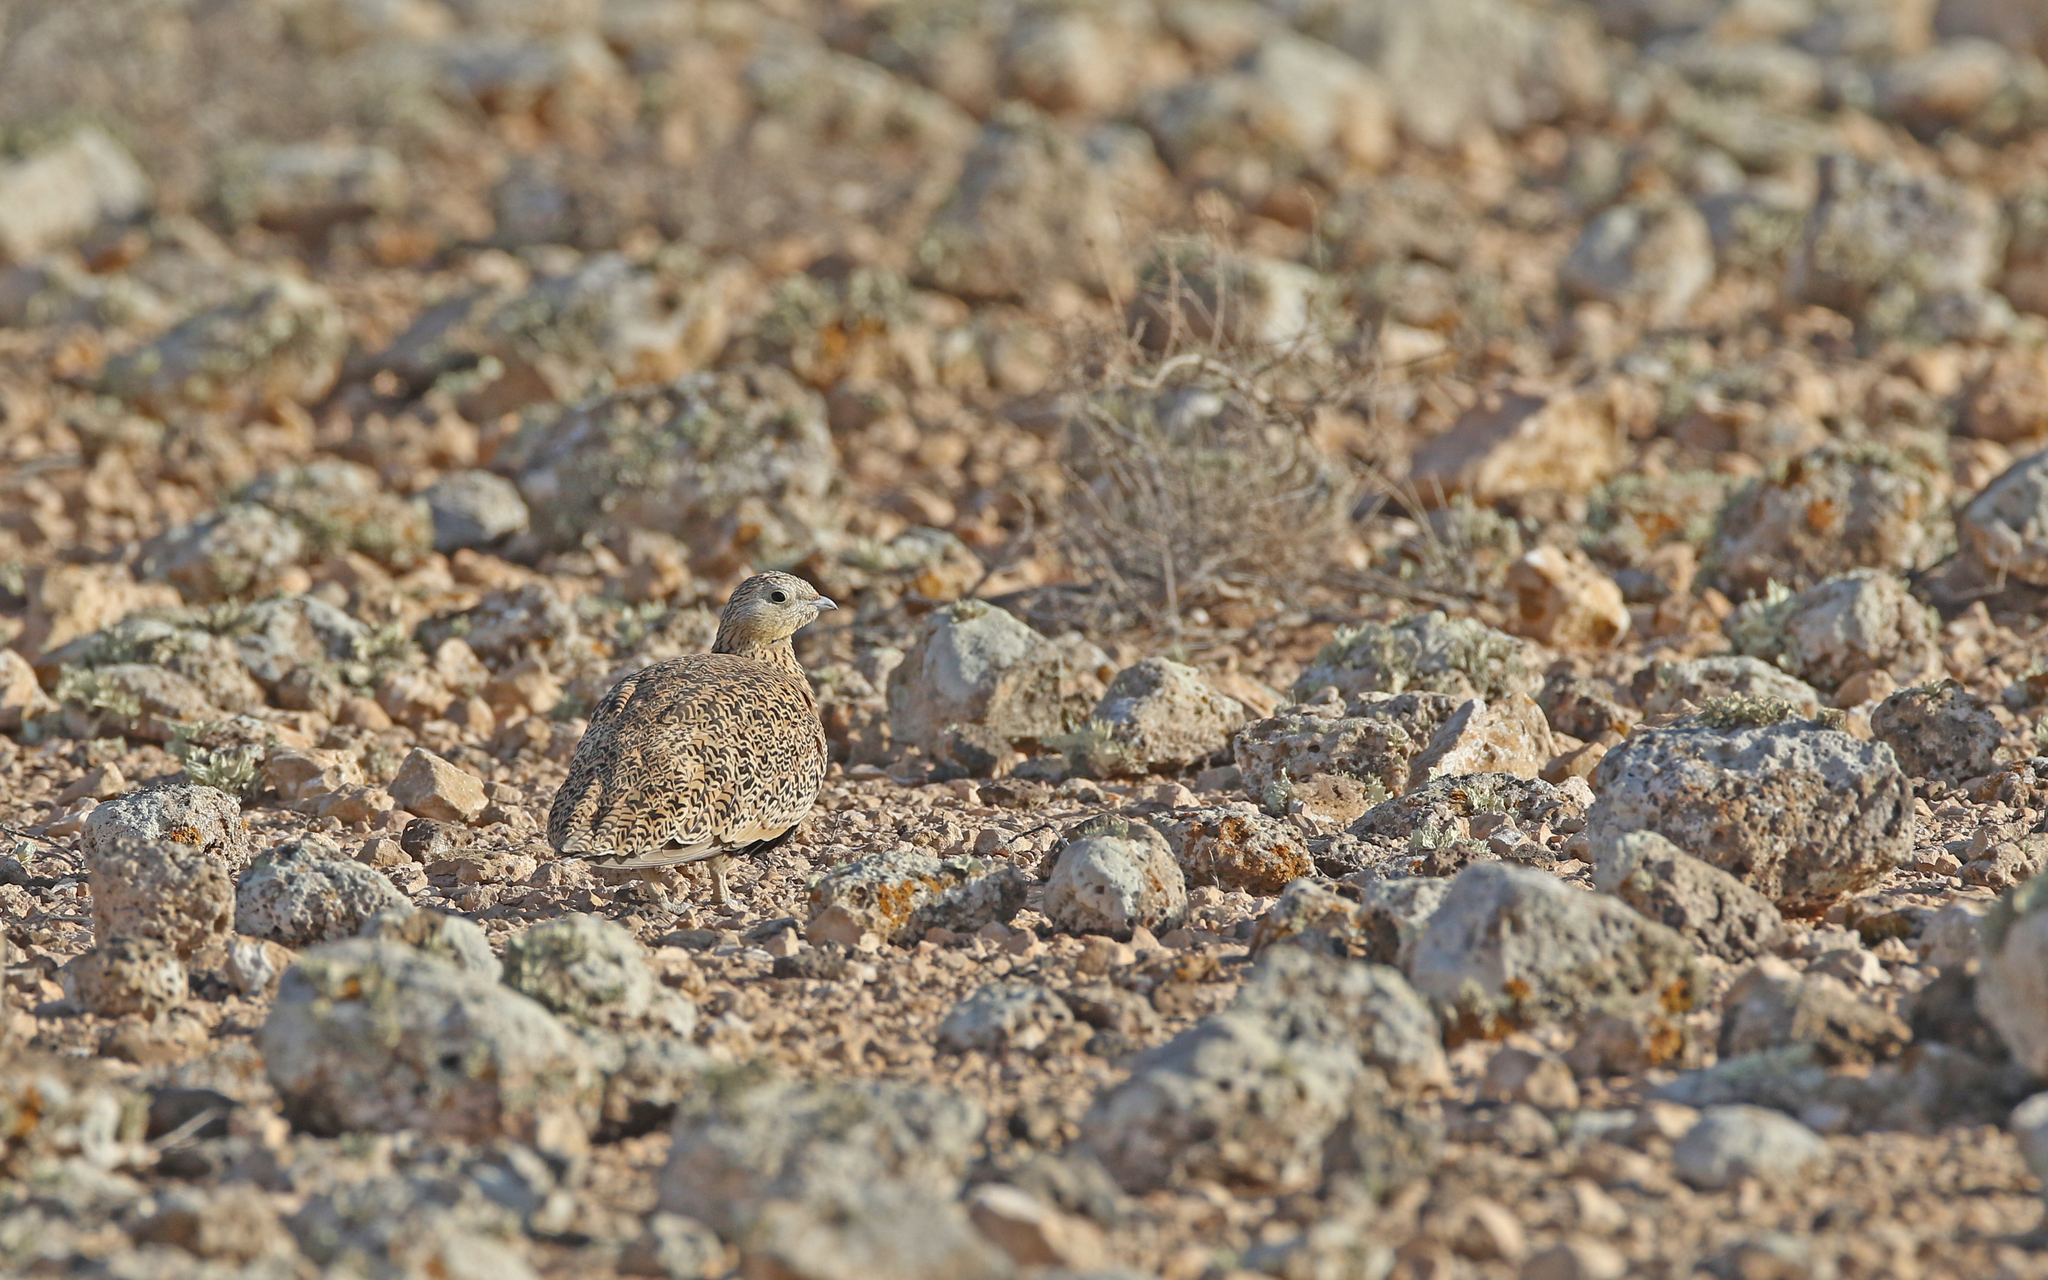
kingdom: Animalia
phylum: Chordata
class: Aves
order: Pteroclidiformes
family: Pteroclididae
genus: Pterocles
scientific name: Pterocles orientalis
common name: Black-bellied sandgrouse
